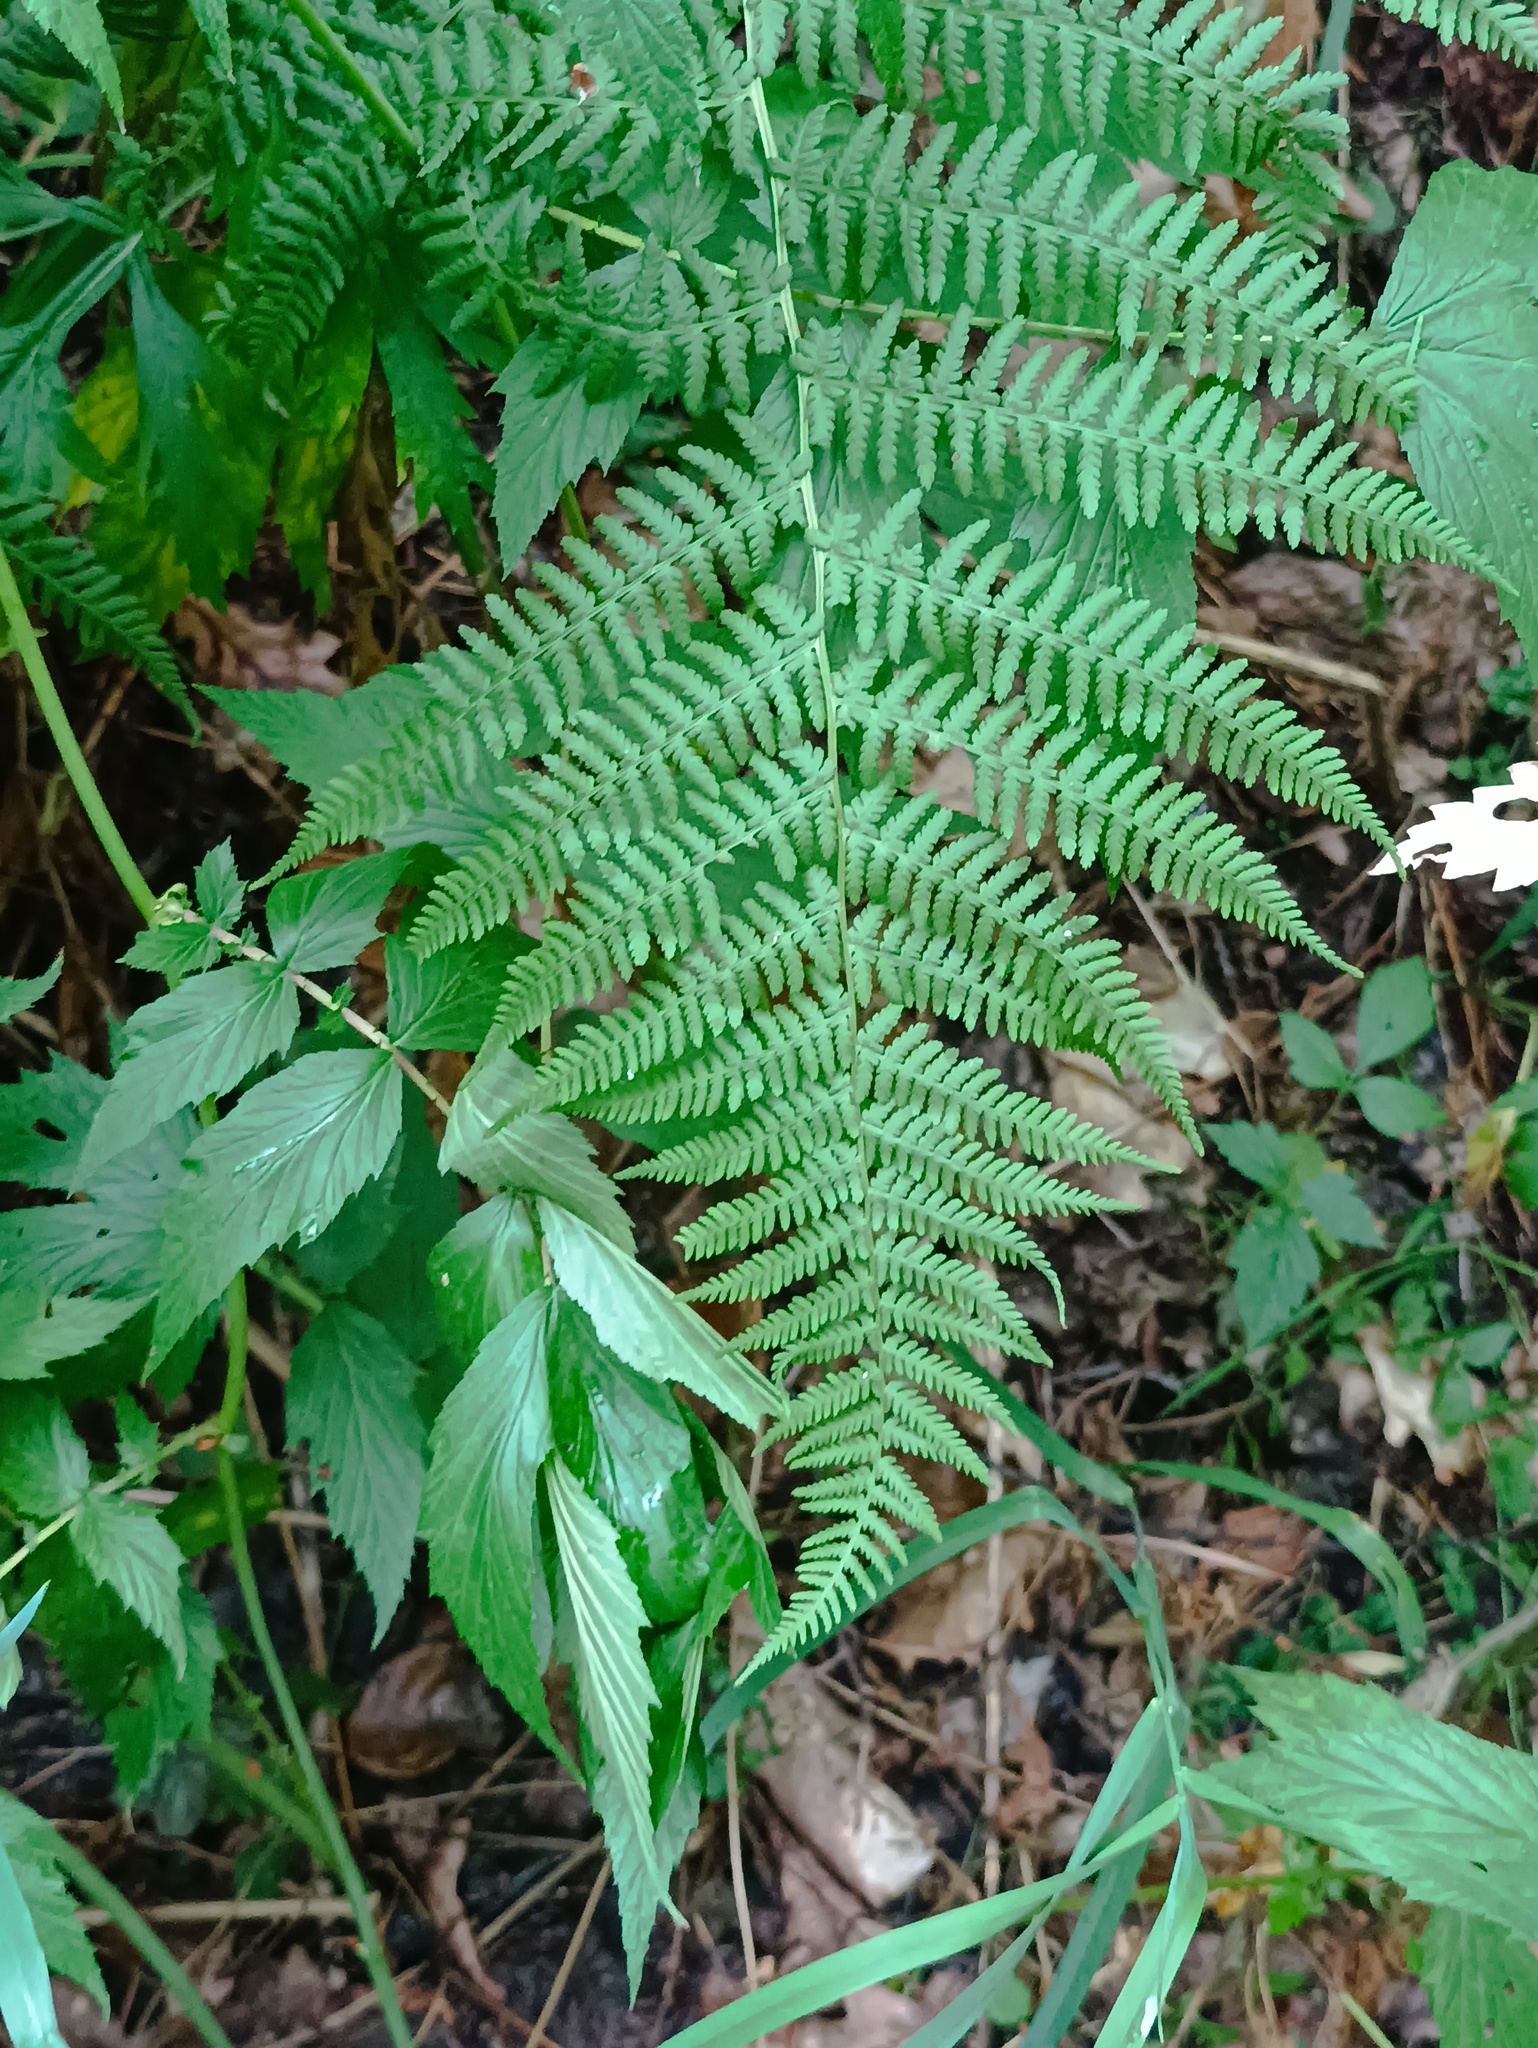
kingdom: Plantae
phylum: Tracheophyta
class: Polypodiopsida
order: Polypodiales
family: Athyriaceae
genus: Athyrium
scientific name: Athyrium filix-femina
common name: Lady fern
